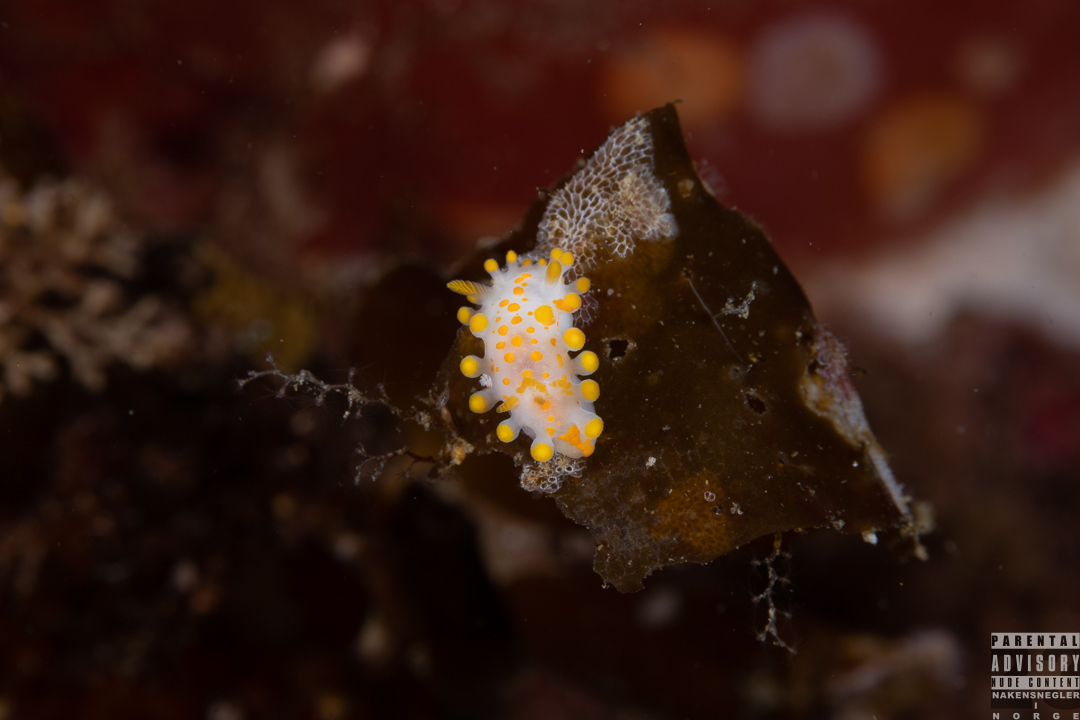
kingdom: Animalia
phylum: Mollusca
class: Gastropoda
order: Nudibranchia
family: Polyceridae
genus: Limacia
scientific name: Limacia clavigera
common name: Orange-clubbed sea slug
